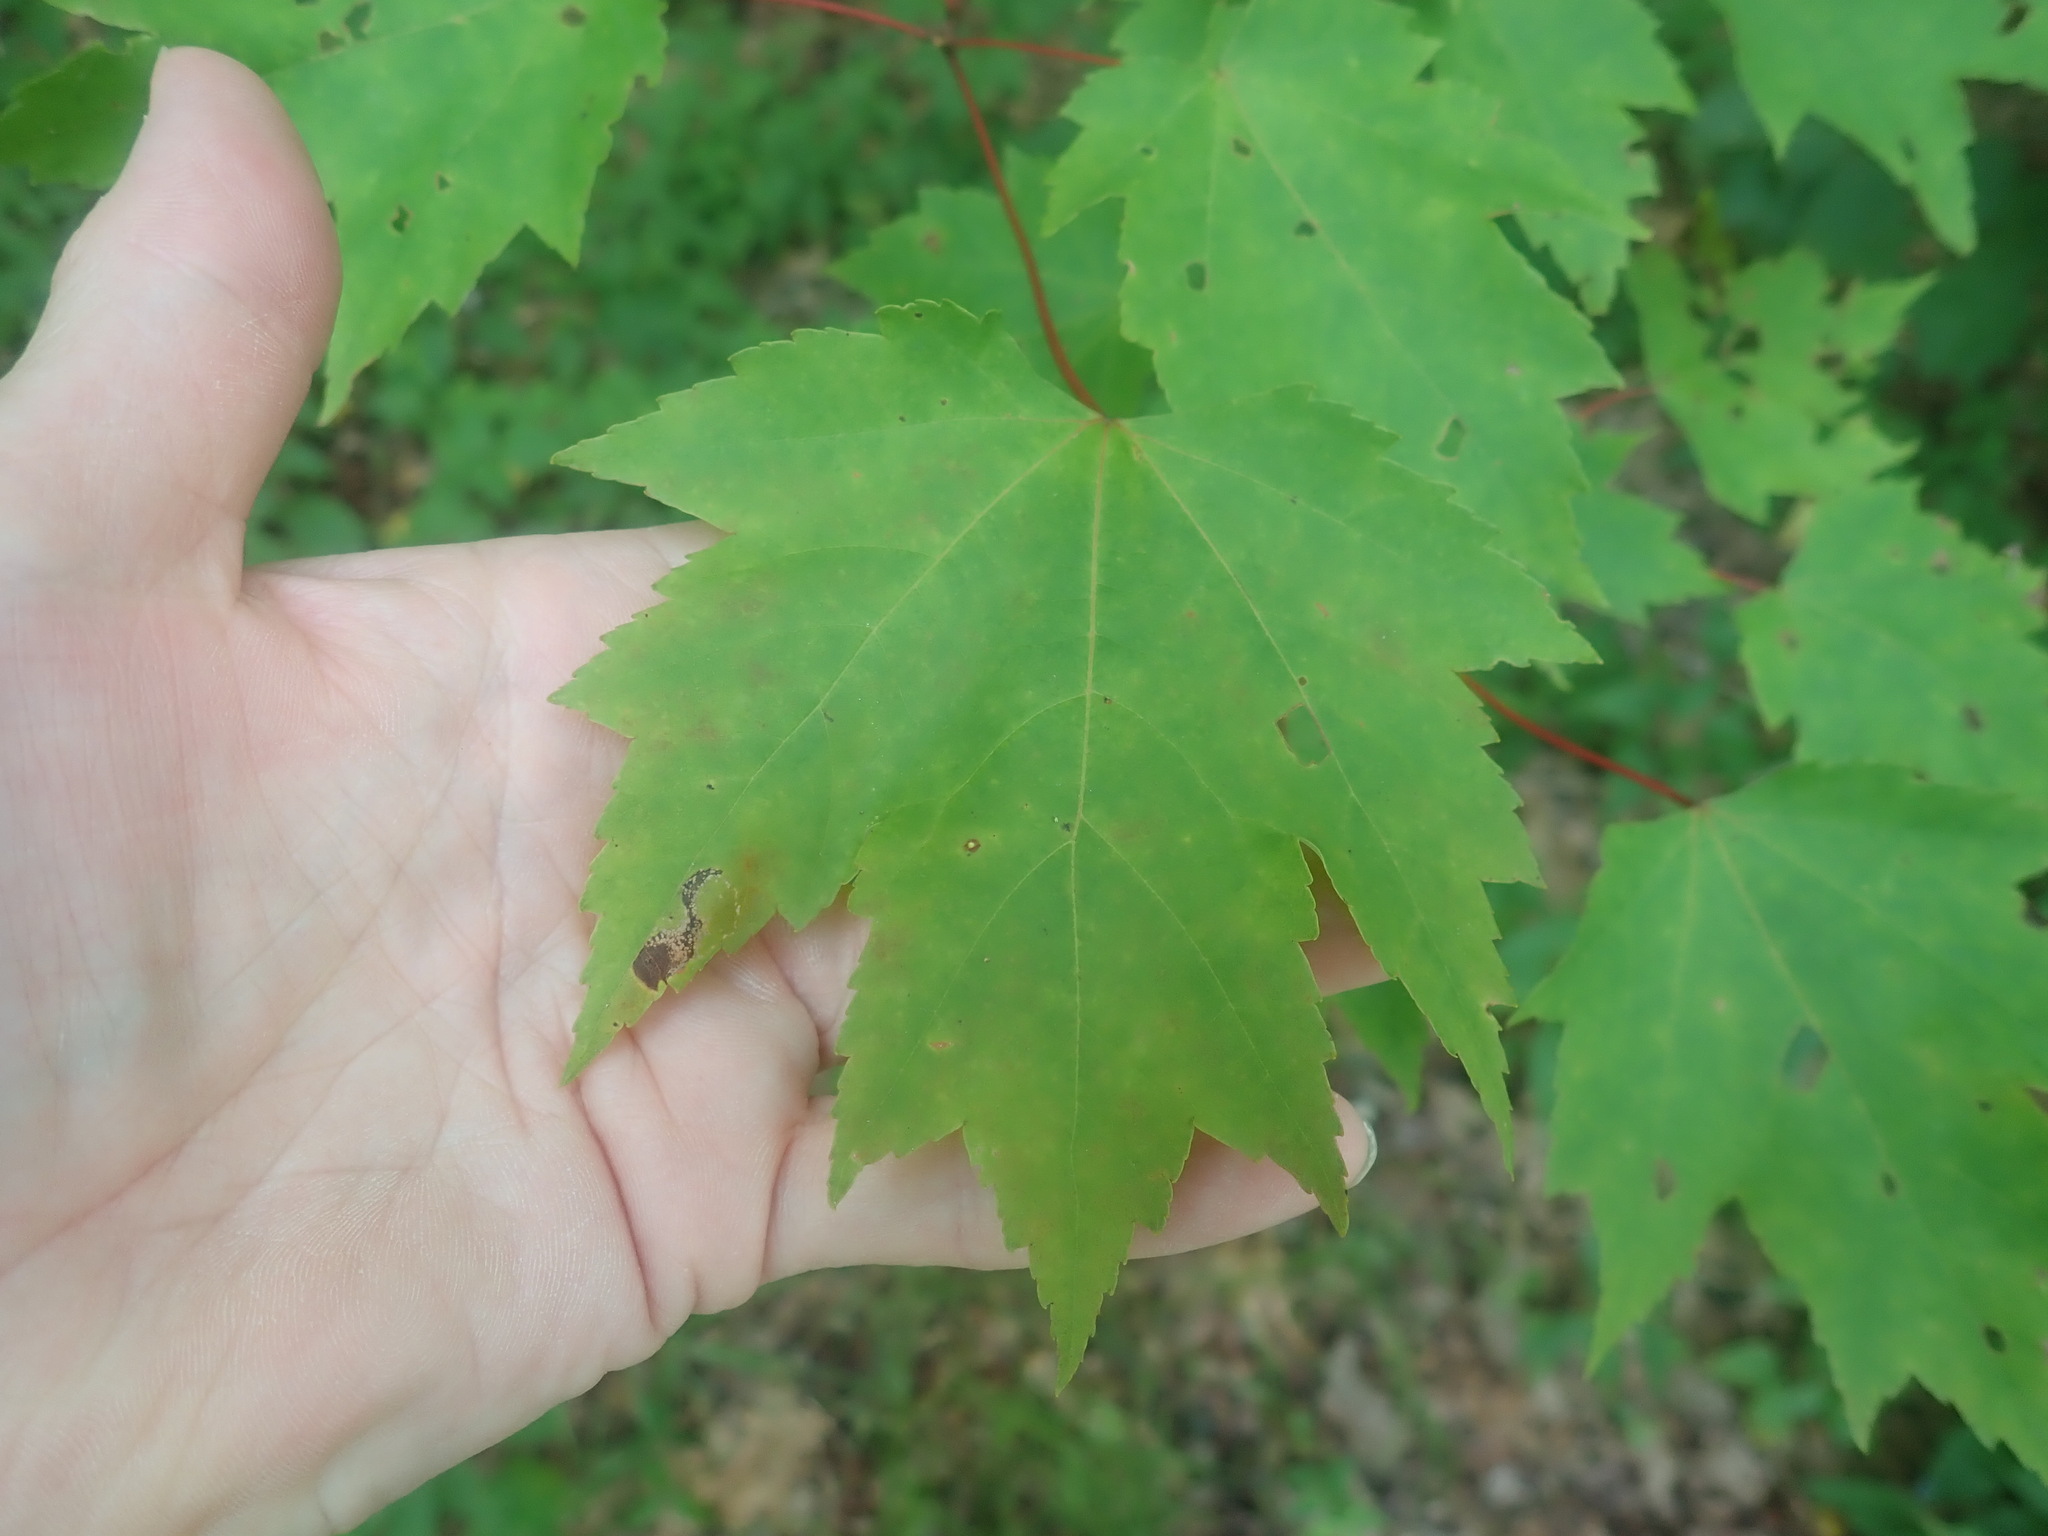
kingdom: Plantae
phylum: Tracheophyta
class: Magnoliopsida
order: Sapindales
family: Sapindaceae
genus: Acer
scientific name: Acer rubrum
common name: Red maple
